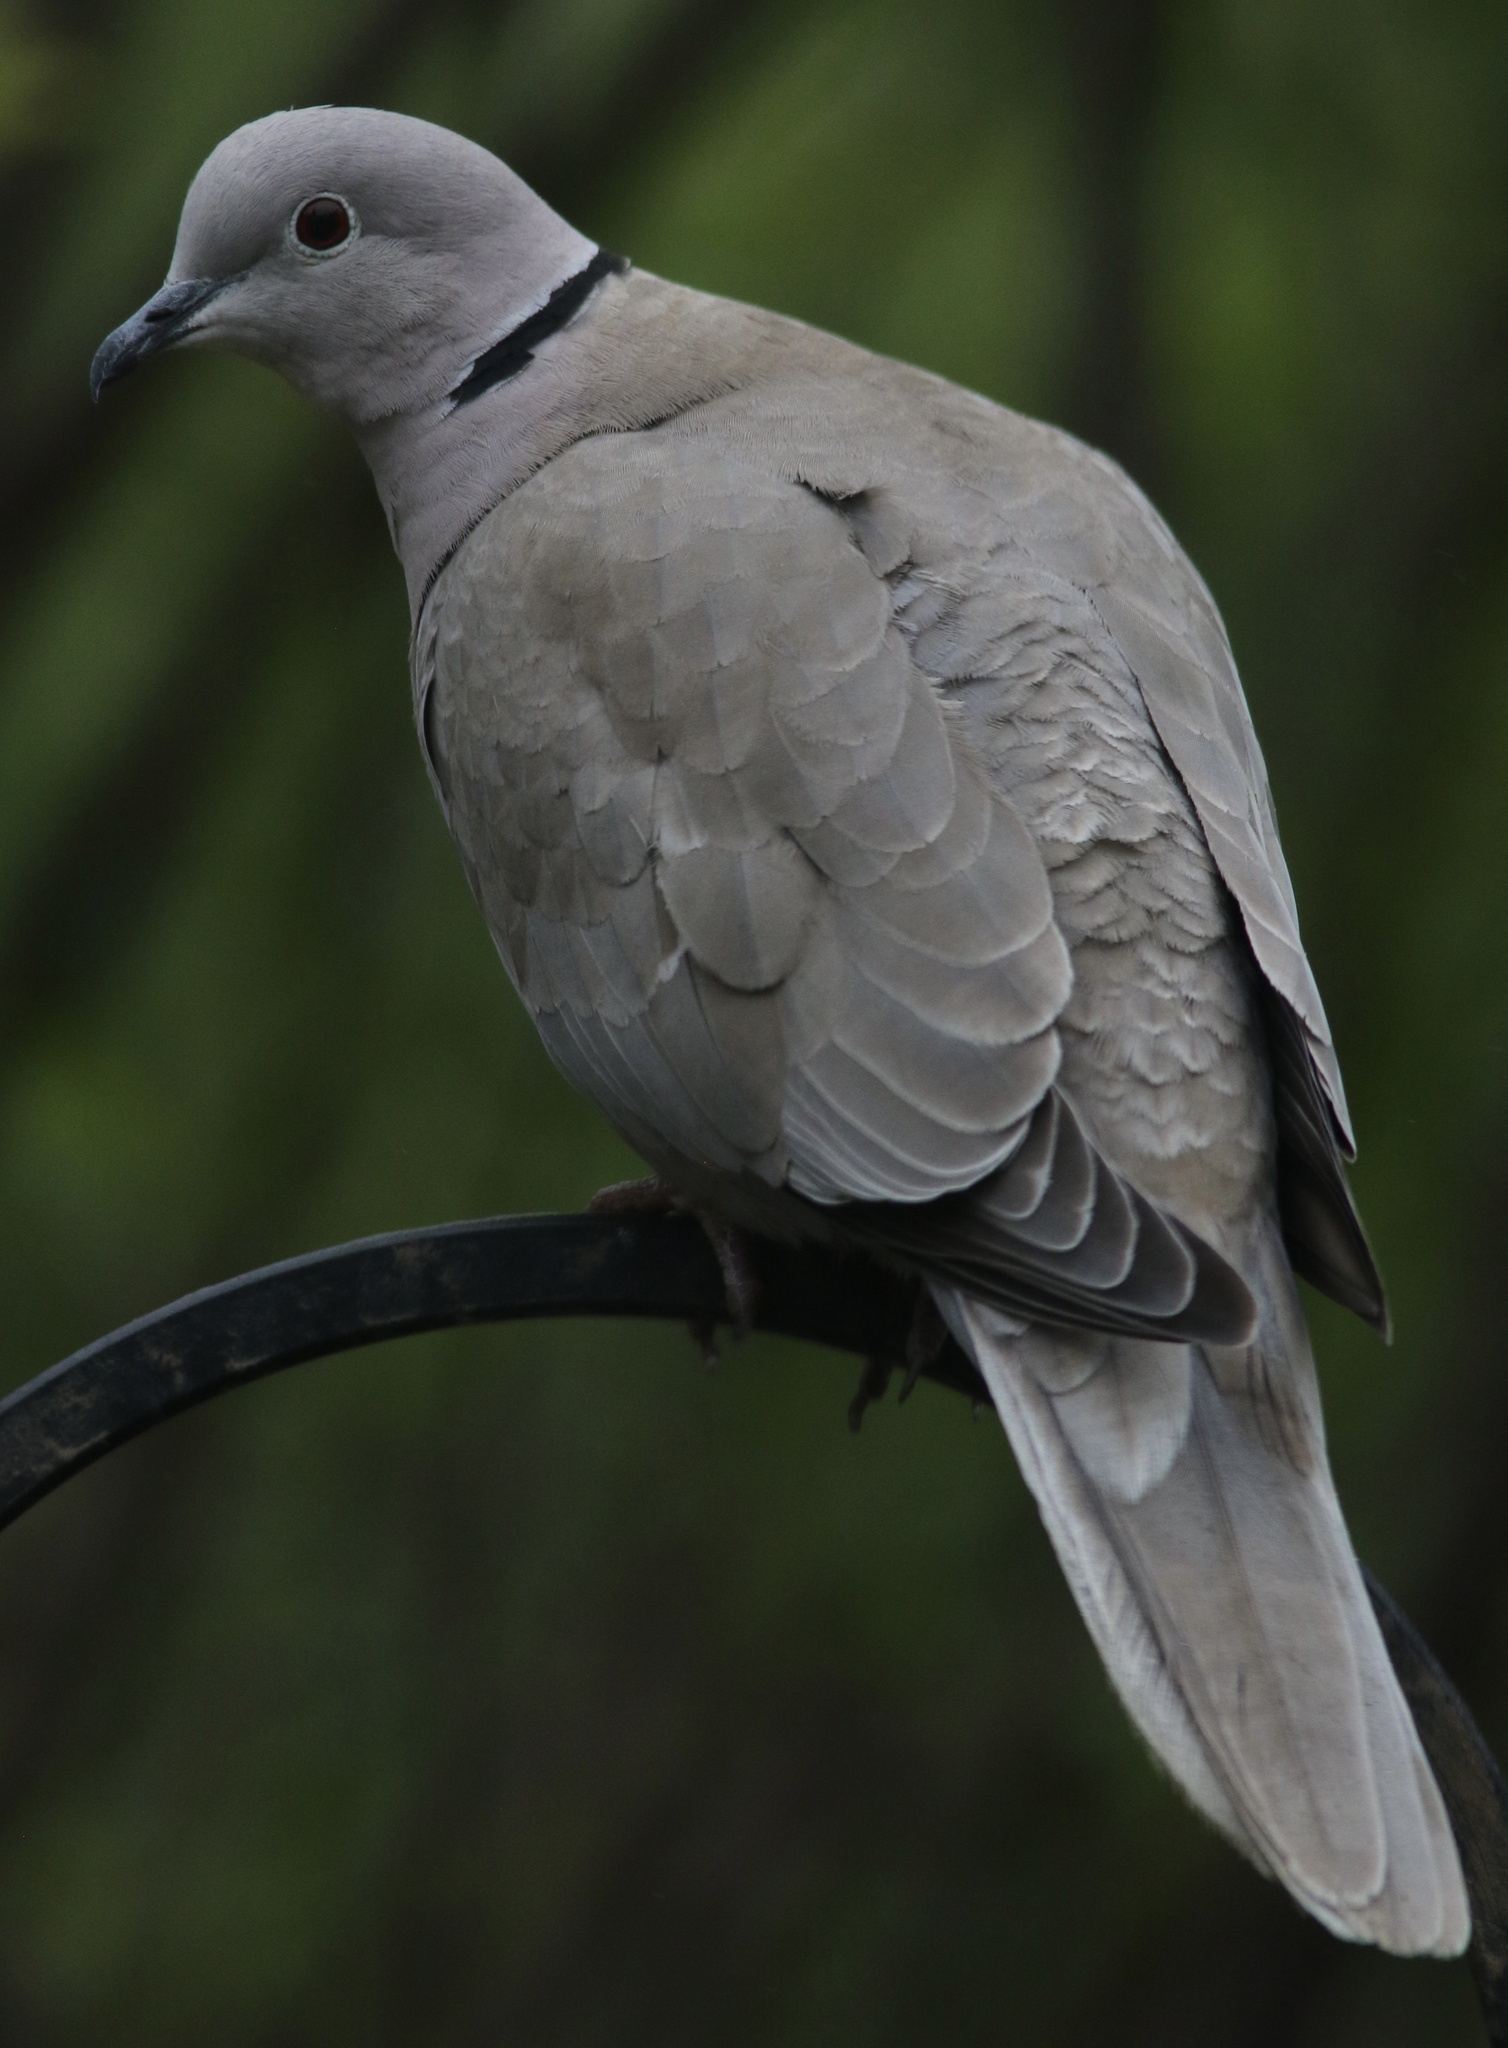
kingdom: Animalia
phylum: Chordata
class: Aves
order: Columbiformes
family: Columbidae
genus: Streptopelia
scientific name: Streptopelia decaocto
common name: Eurasian collared dove
